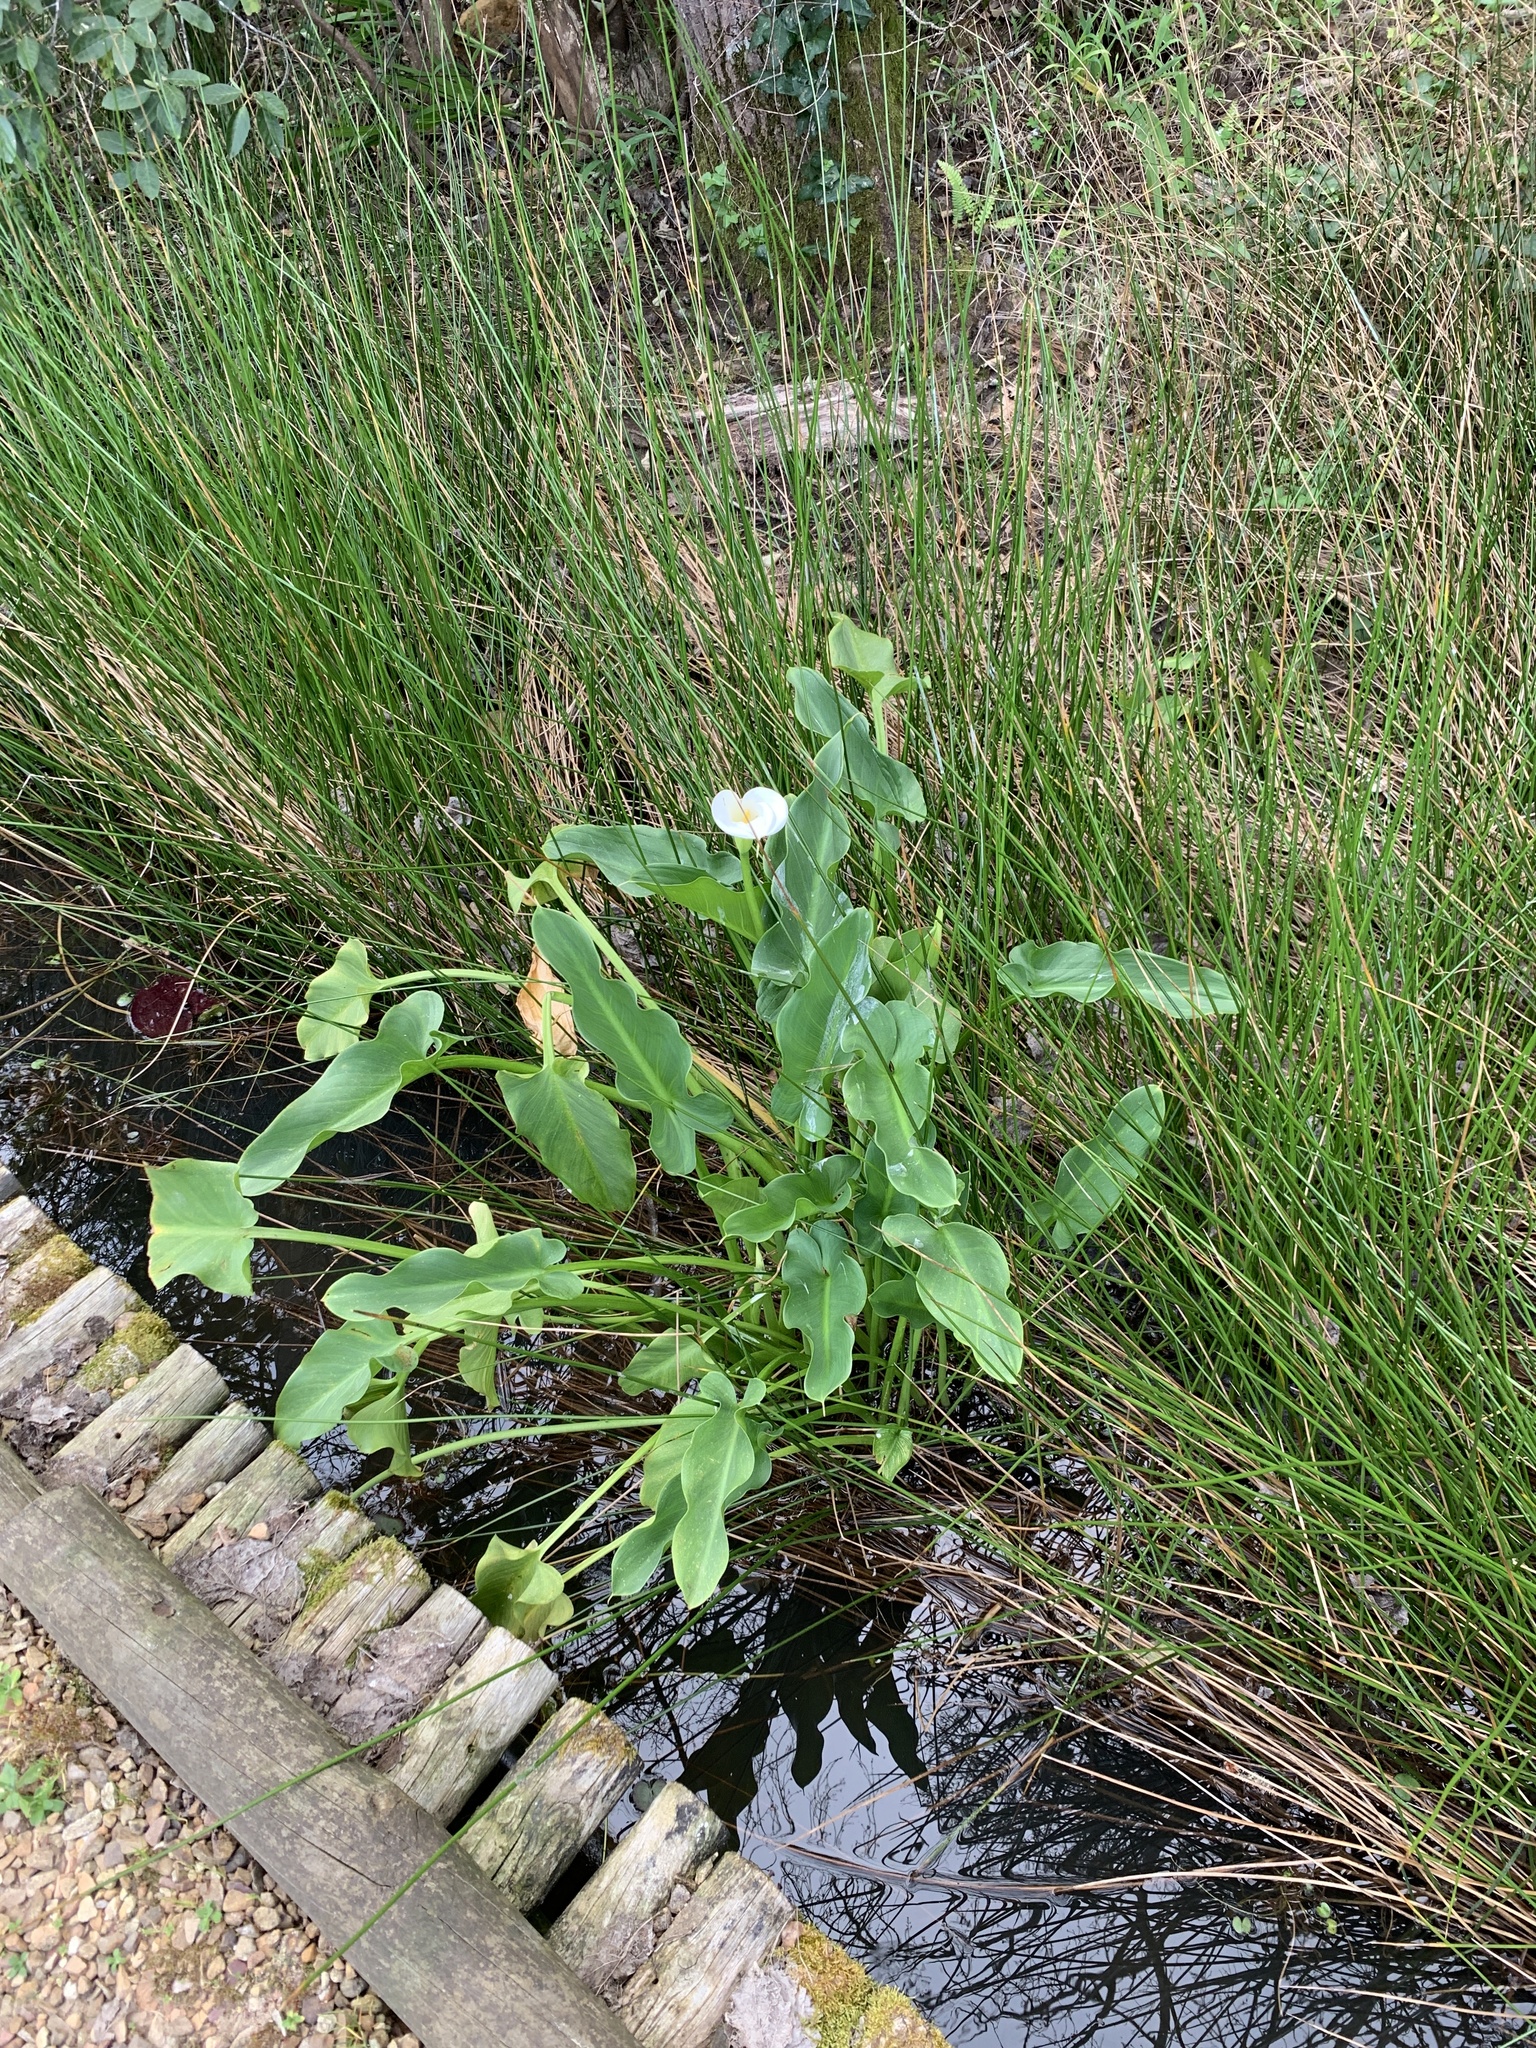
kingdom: Plantae
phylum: Tracheophyta
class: Liliopsida
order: Alismatales
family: Araceae
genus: Zantedeschia
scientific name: Zantedeschia aethiopica
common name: Altar-lily
